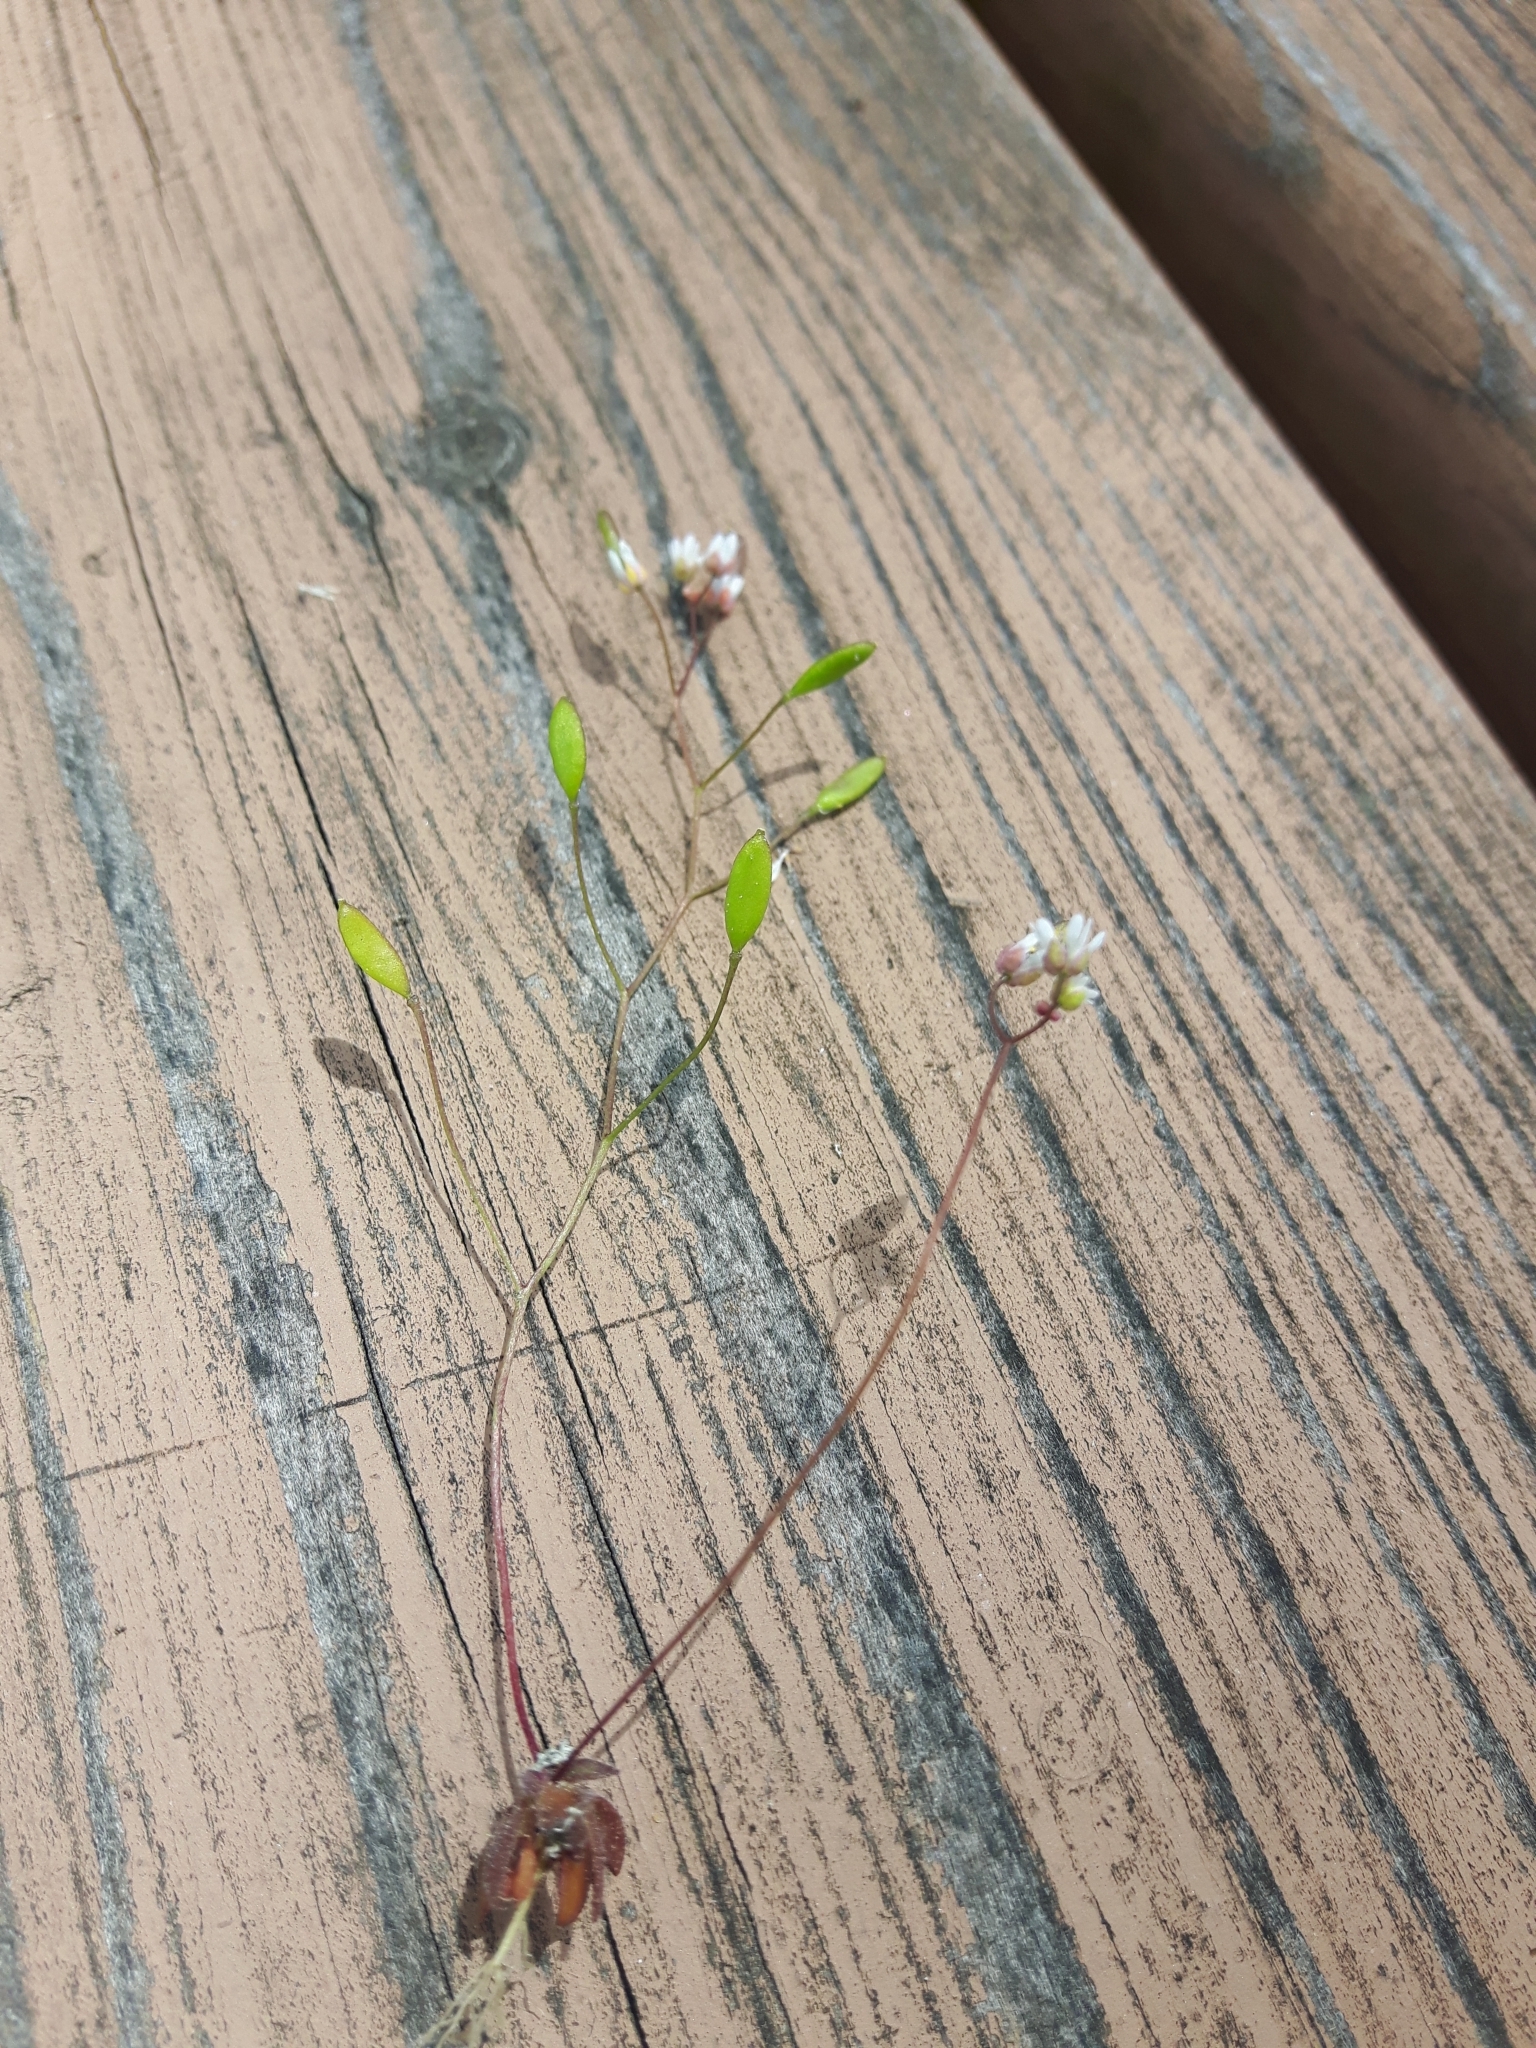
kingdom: Plantae
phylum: Tracheophyta
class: Magnoliopsida
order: Brassicales
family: Brassicaceae
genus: Draba
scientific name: Draba verna
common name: Spring draba
